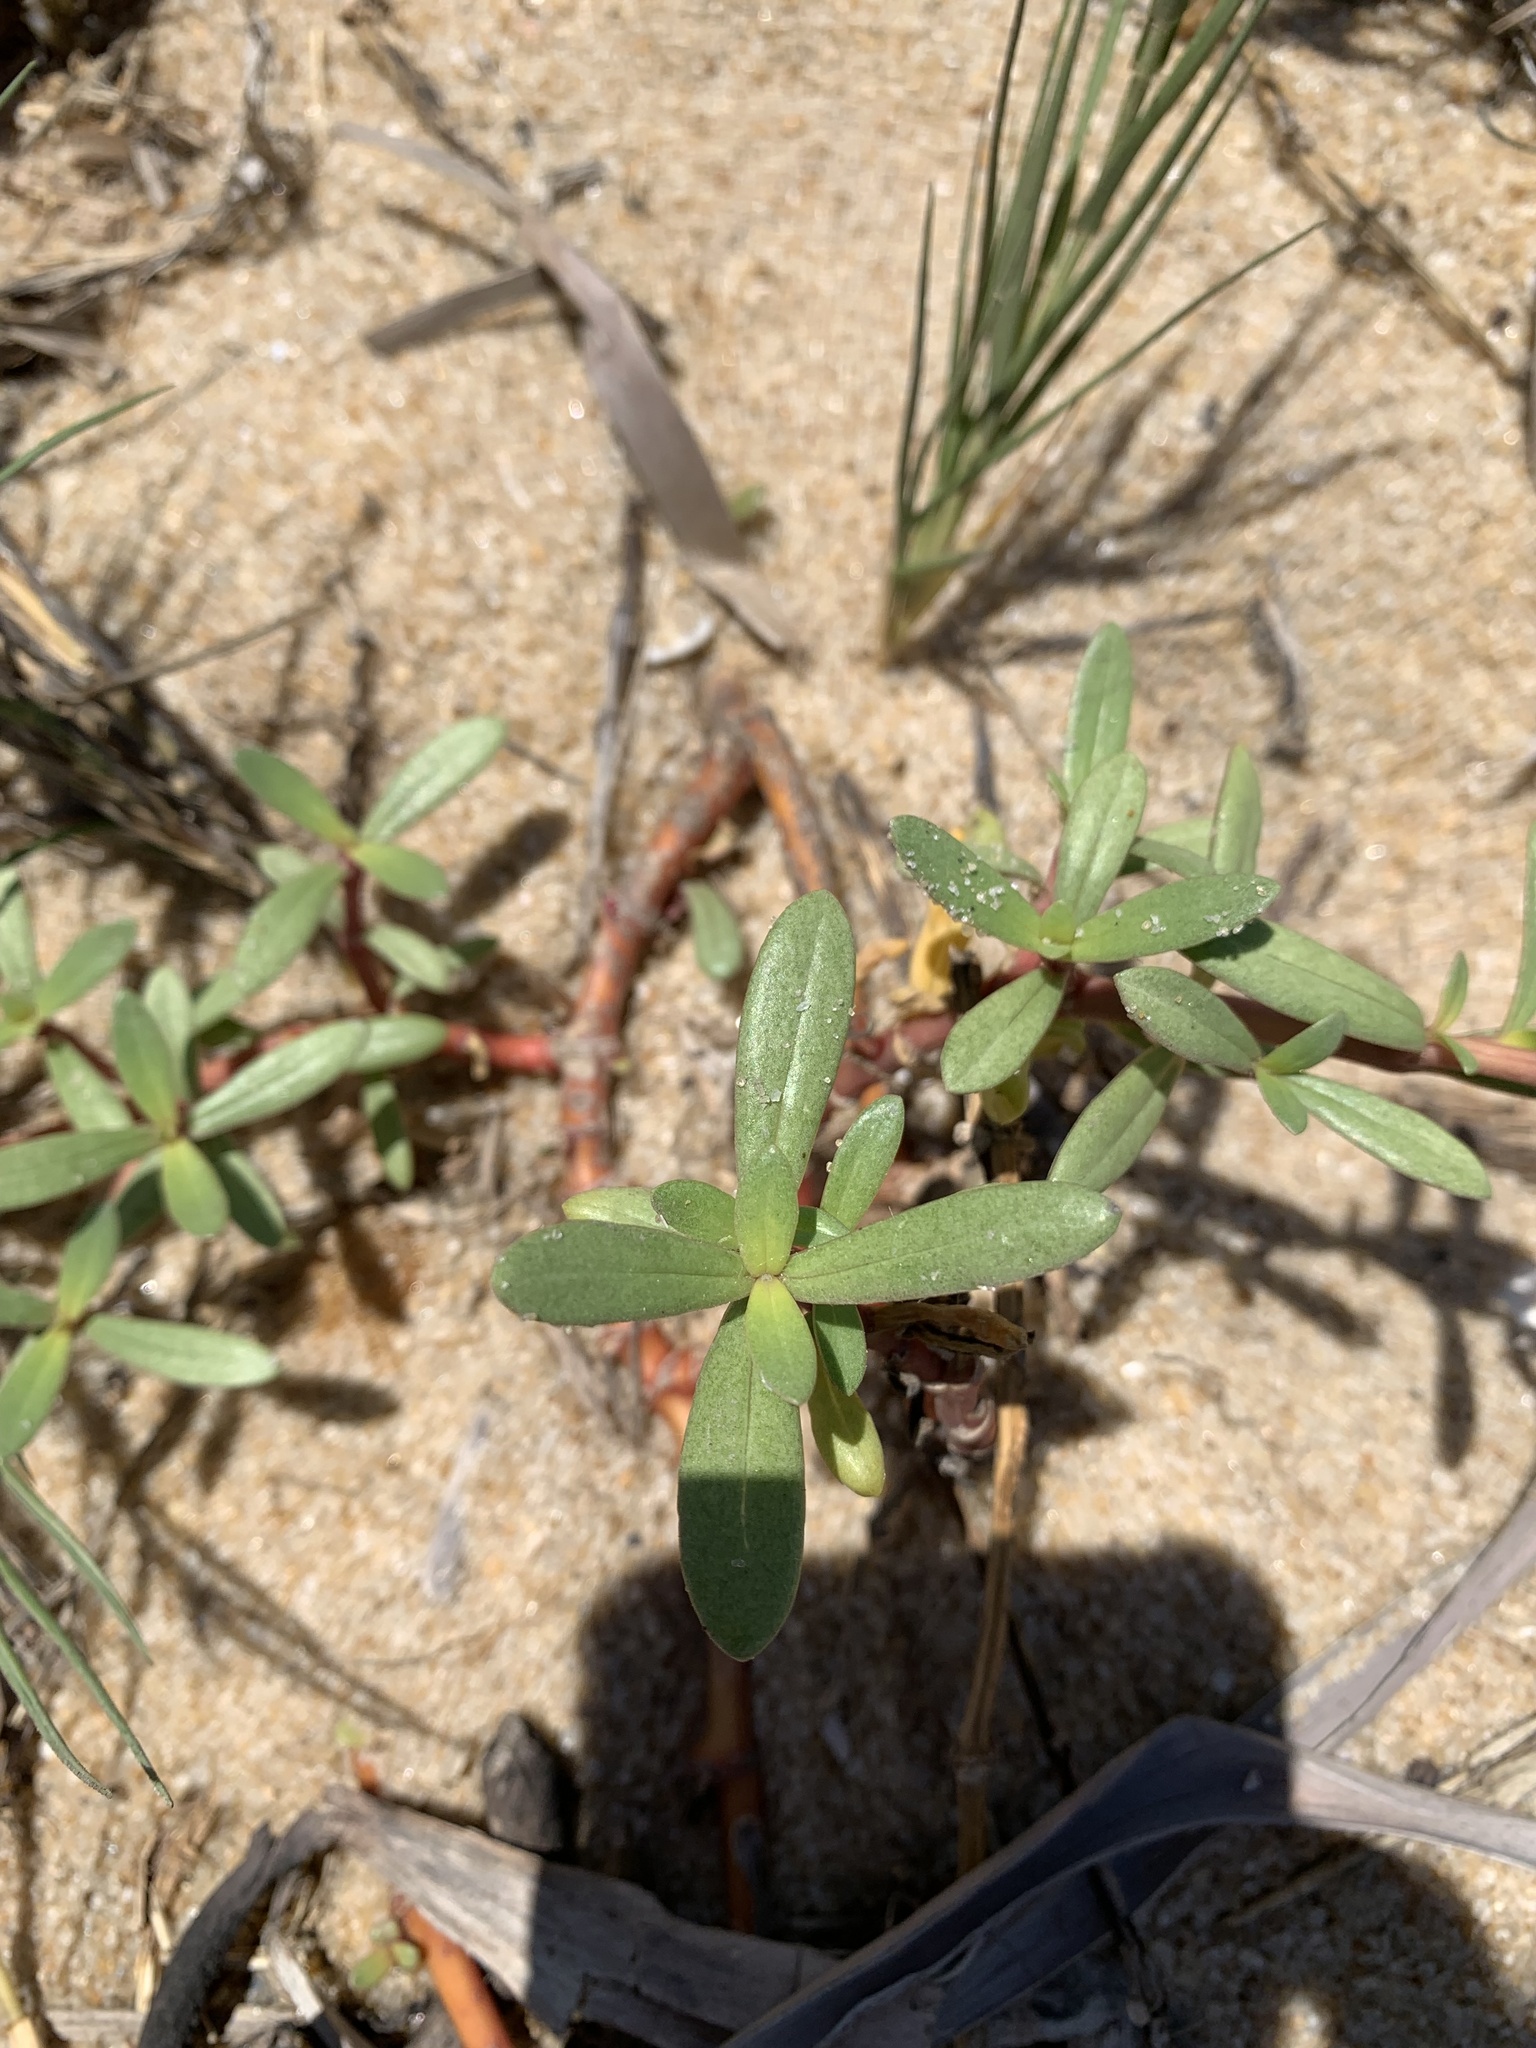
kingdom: Plantae
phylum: Tracheophyta
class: Magnoliopsida
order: Caryophyllales
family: Amaranthaceae
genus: Gomphrena
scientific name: Gomphrena portulacoides
